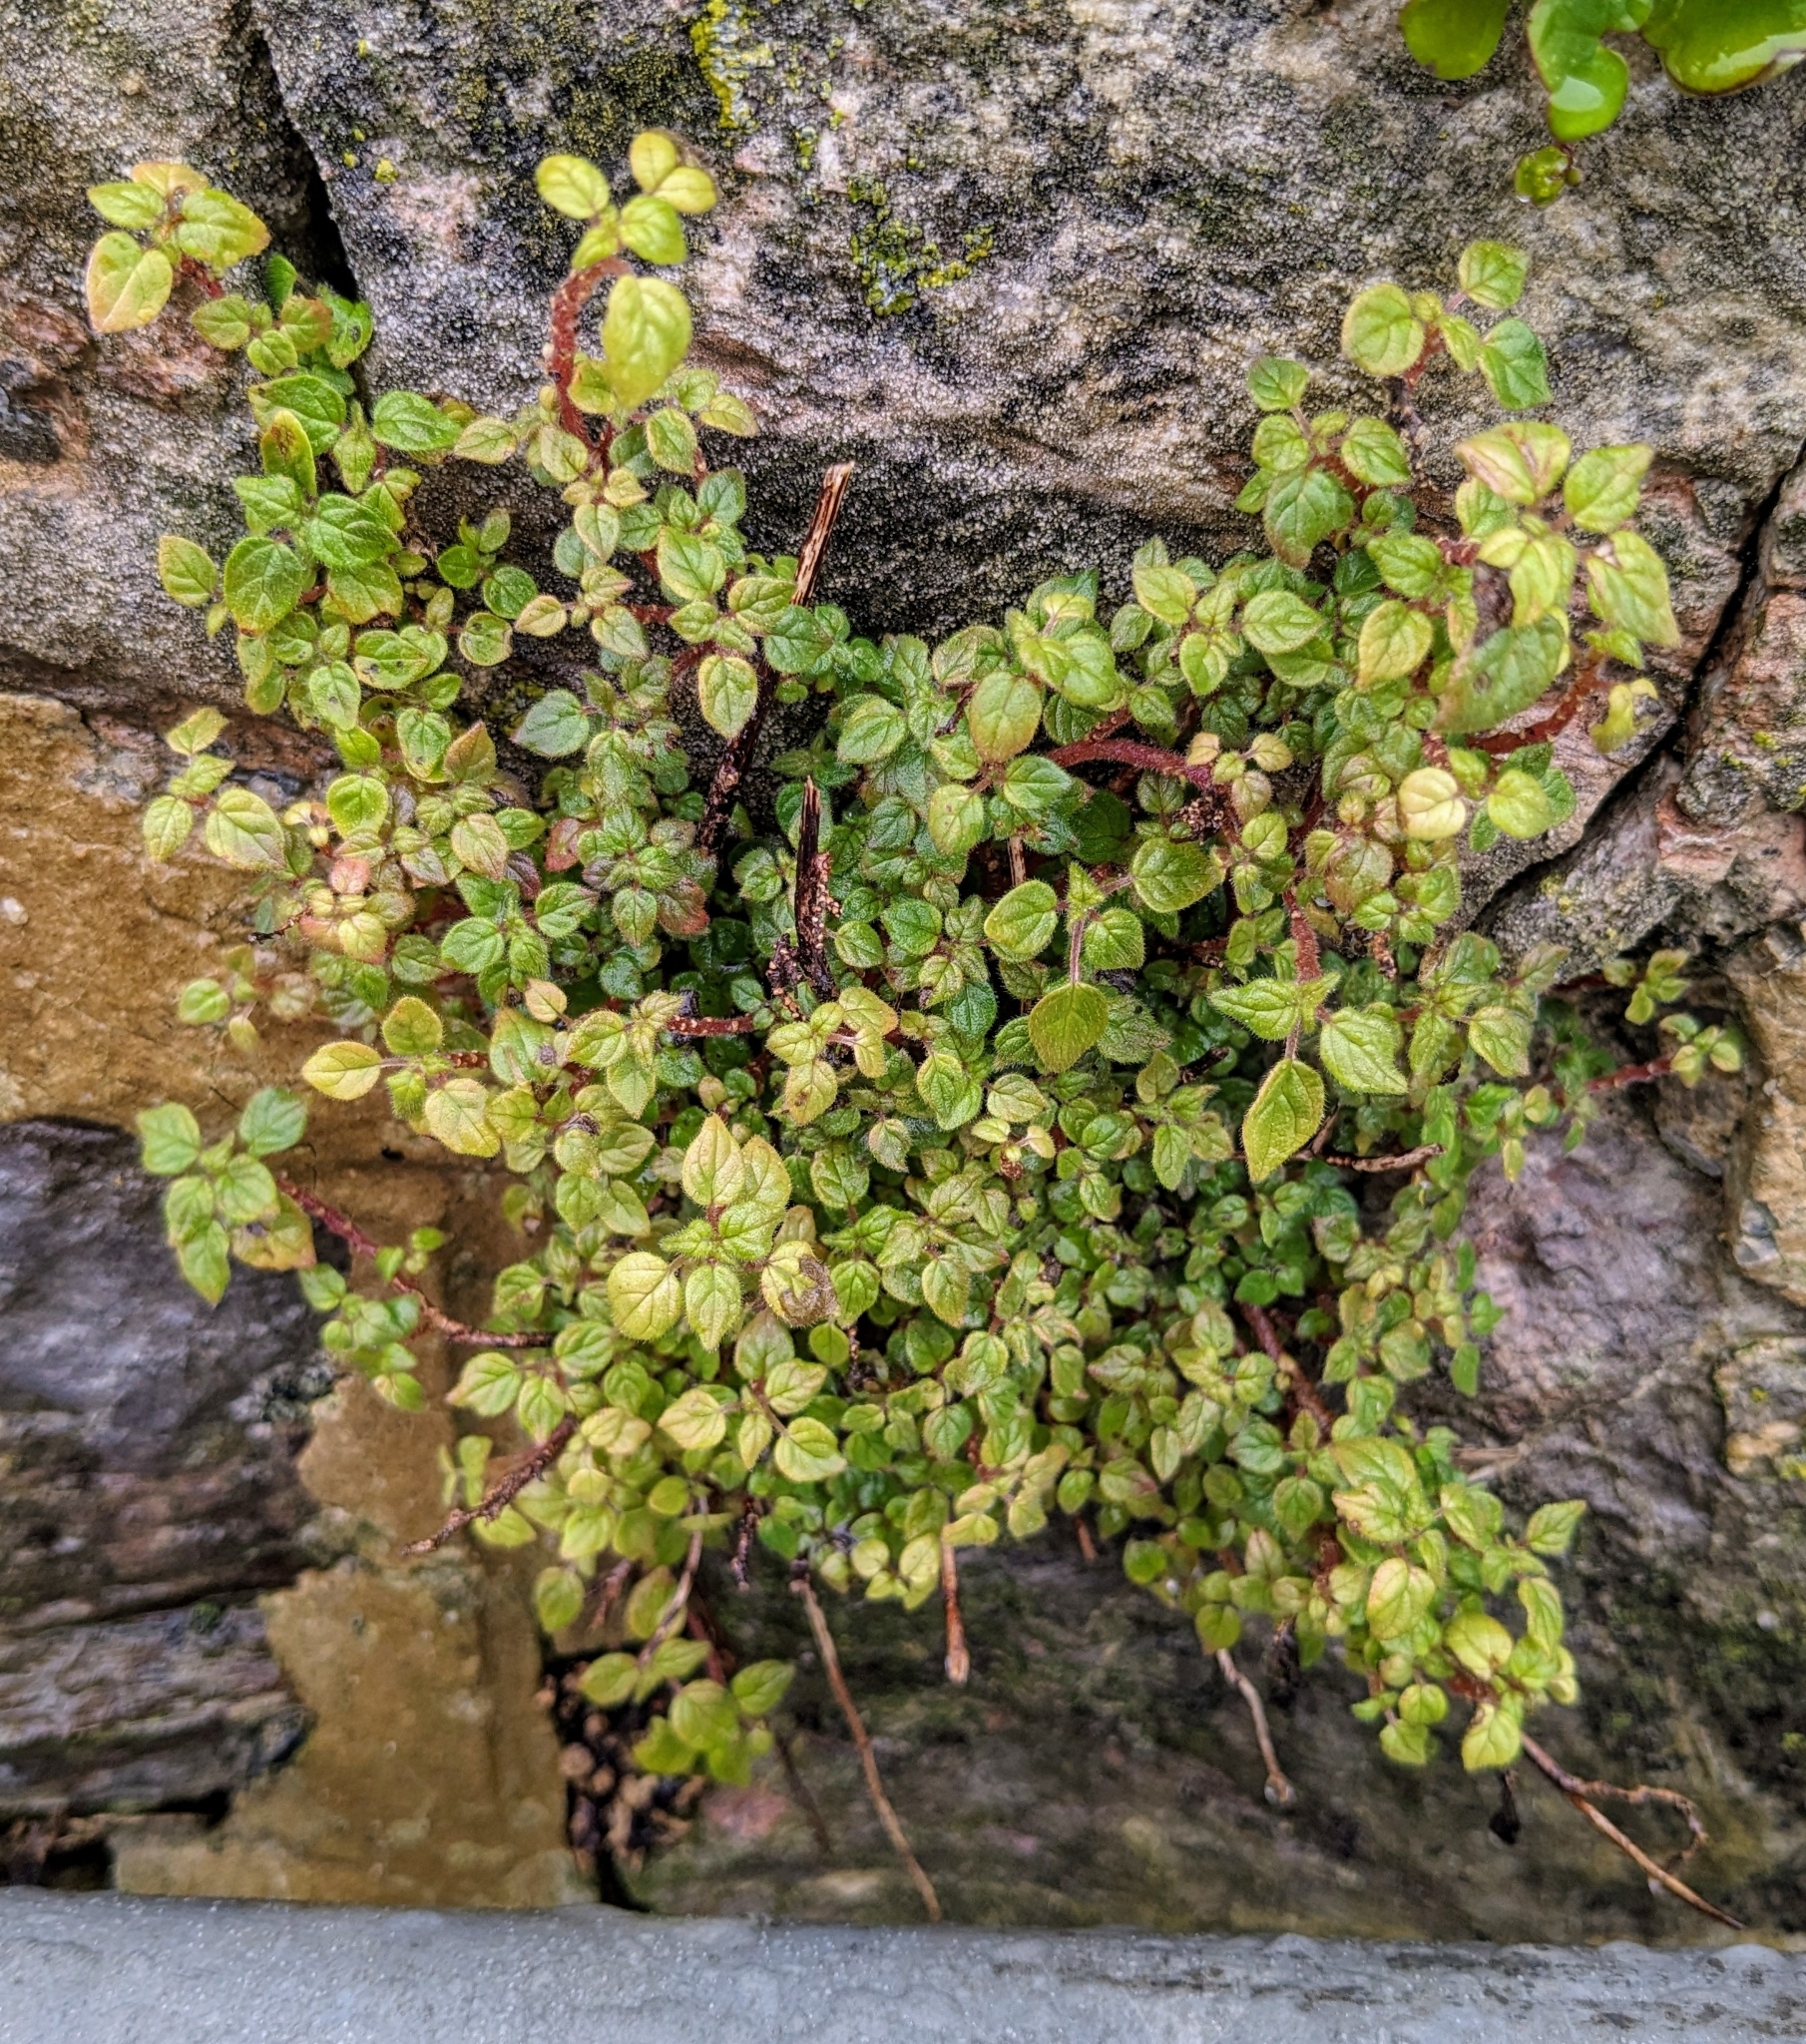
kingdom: Plantae
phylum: Tracheophyta
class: Magnoliopsida
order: Rosales
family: Urticaceae
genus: Parietaria
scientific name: Parietaria judaica
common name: Pellitory-of-the-wall
